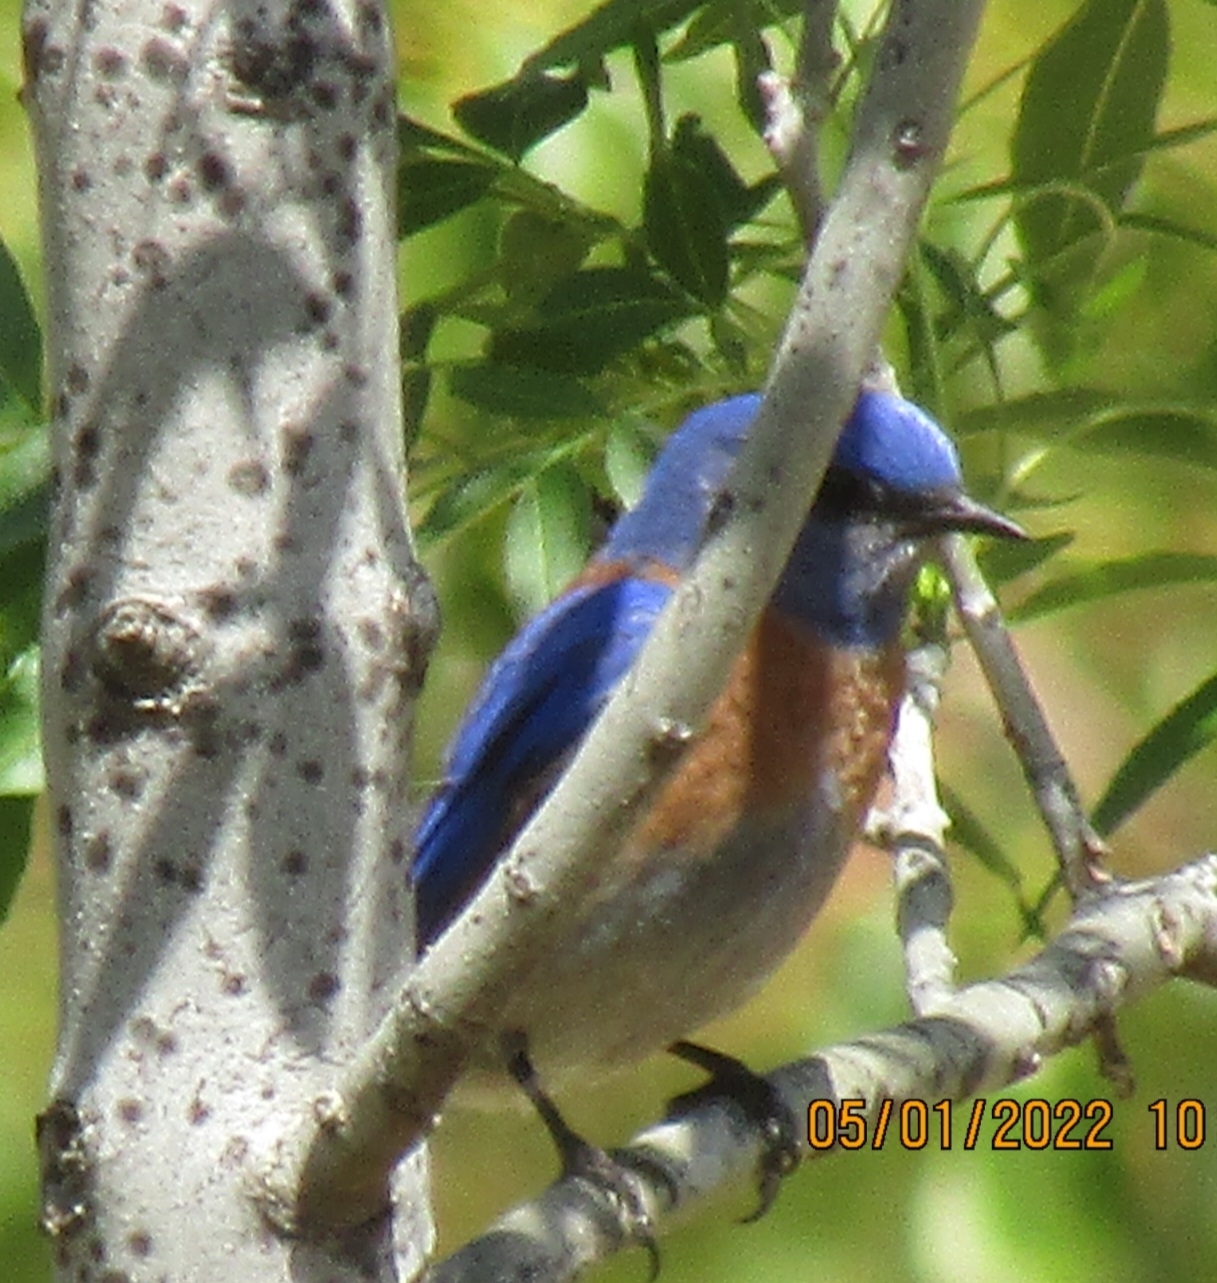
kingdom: Animalia
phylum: Chordata
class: Aves
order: Passeriformes
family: Turdidae
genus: Sialia
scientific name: Sialia mexicana
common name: Western bluebird
